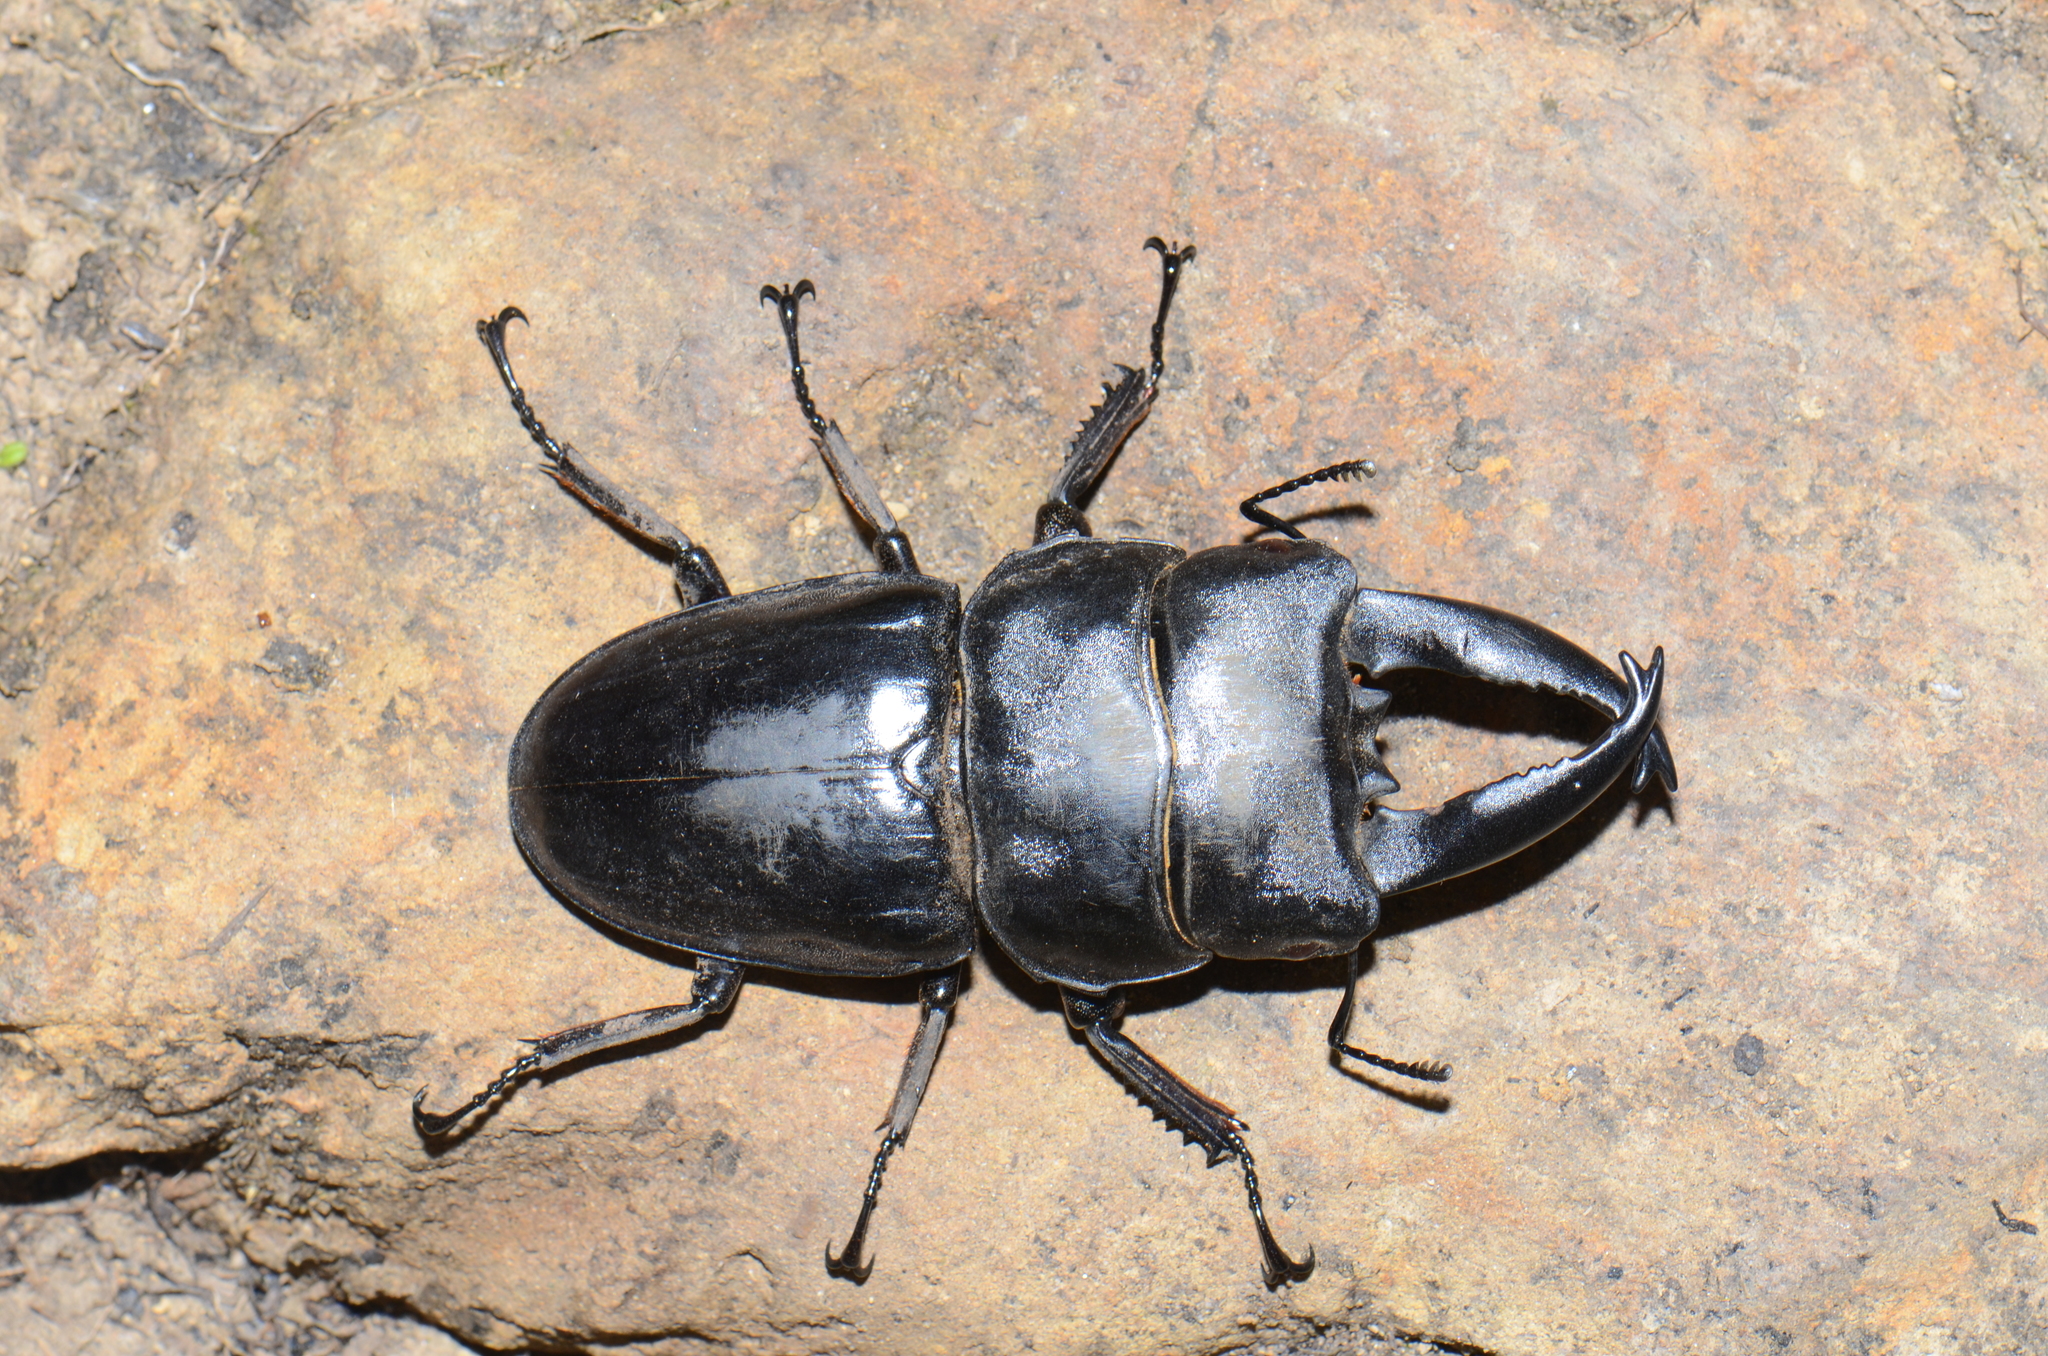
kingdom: Animalia
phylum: Arthropoda
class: Insecta
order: Coleoptera
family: Lucanidae
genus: Serrognathus
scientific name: Serrognathus alcides
